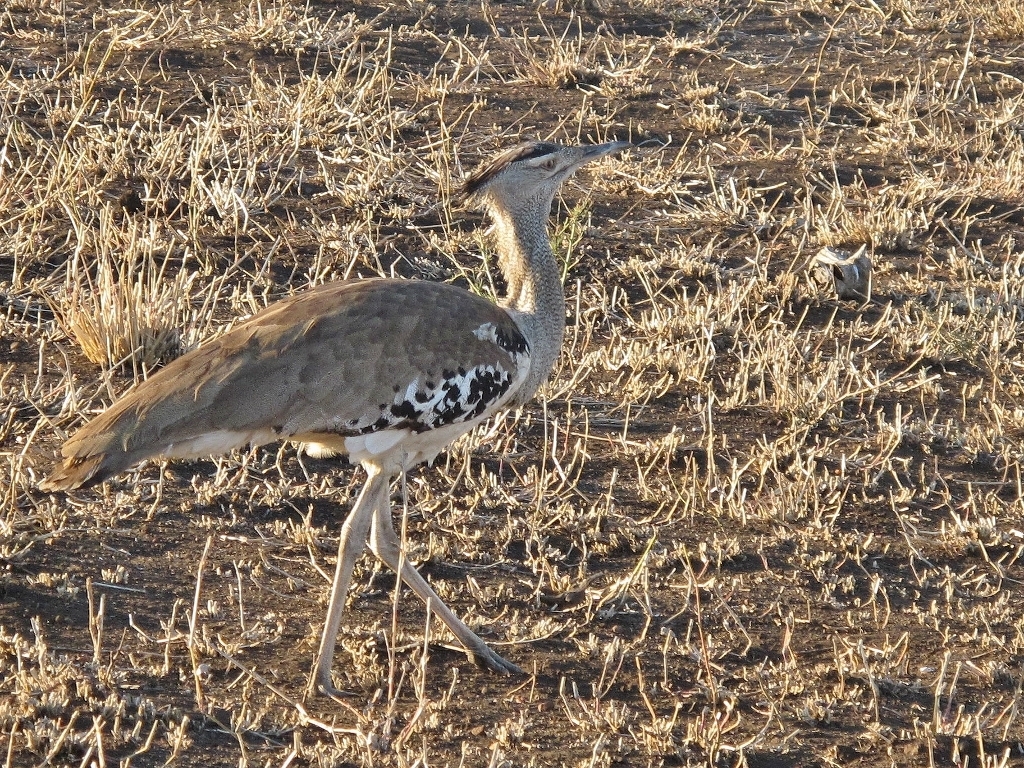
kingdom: Animalia
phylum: Chordata
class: Aves
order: Otidiformes
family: Otididae
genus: Ardeotis
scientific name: Ardeotis kori
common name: Kori bustard
